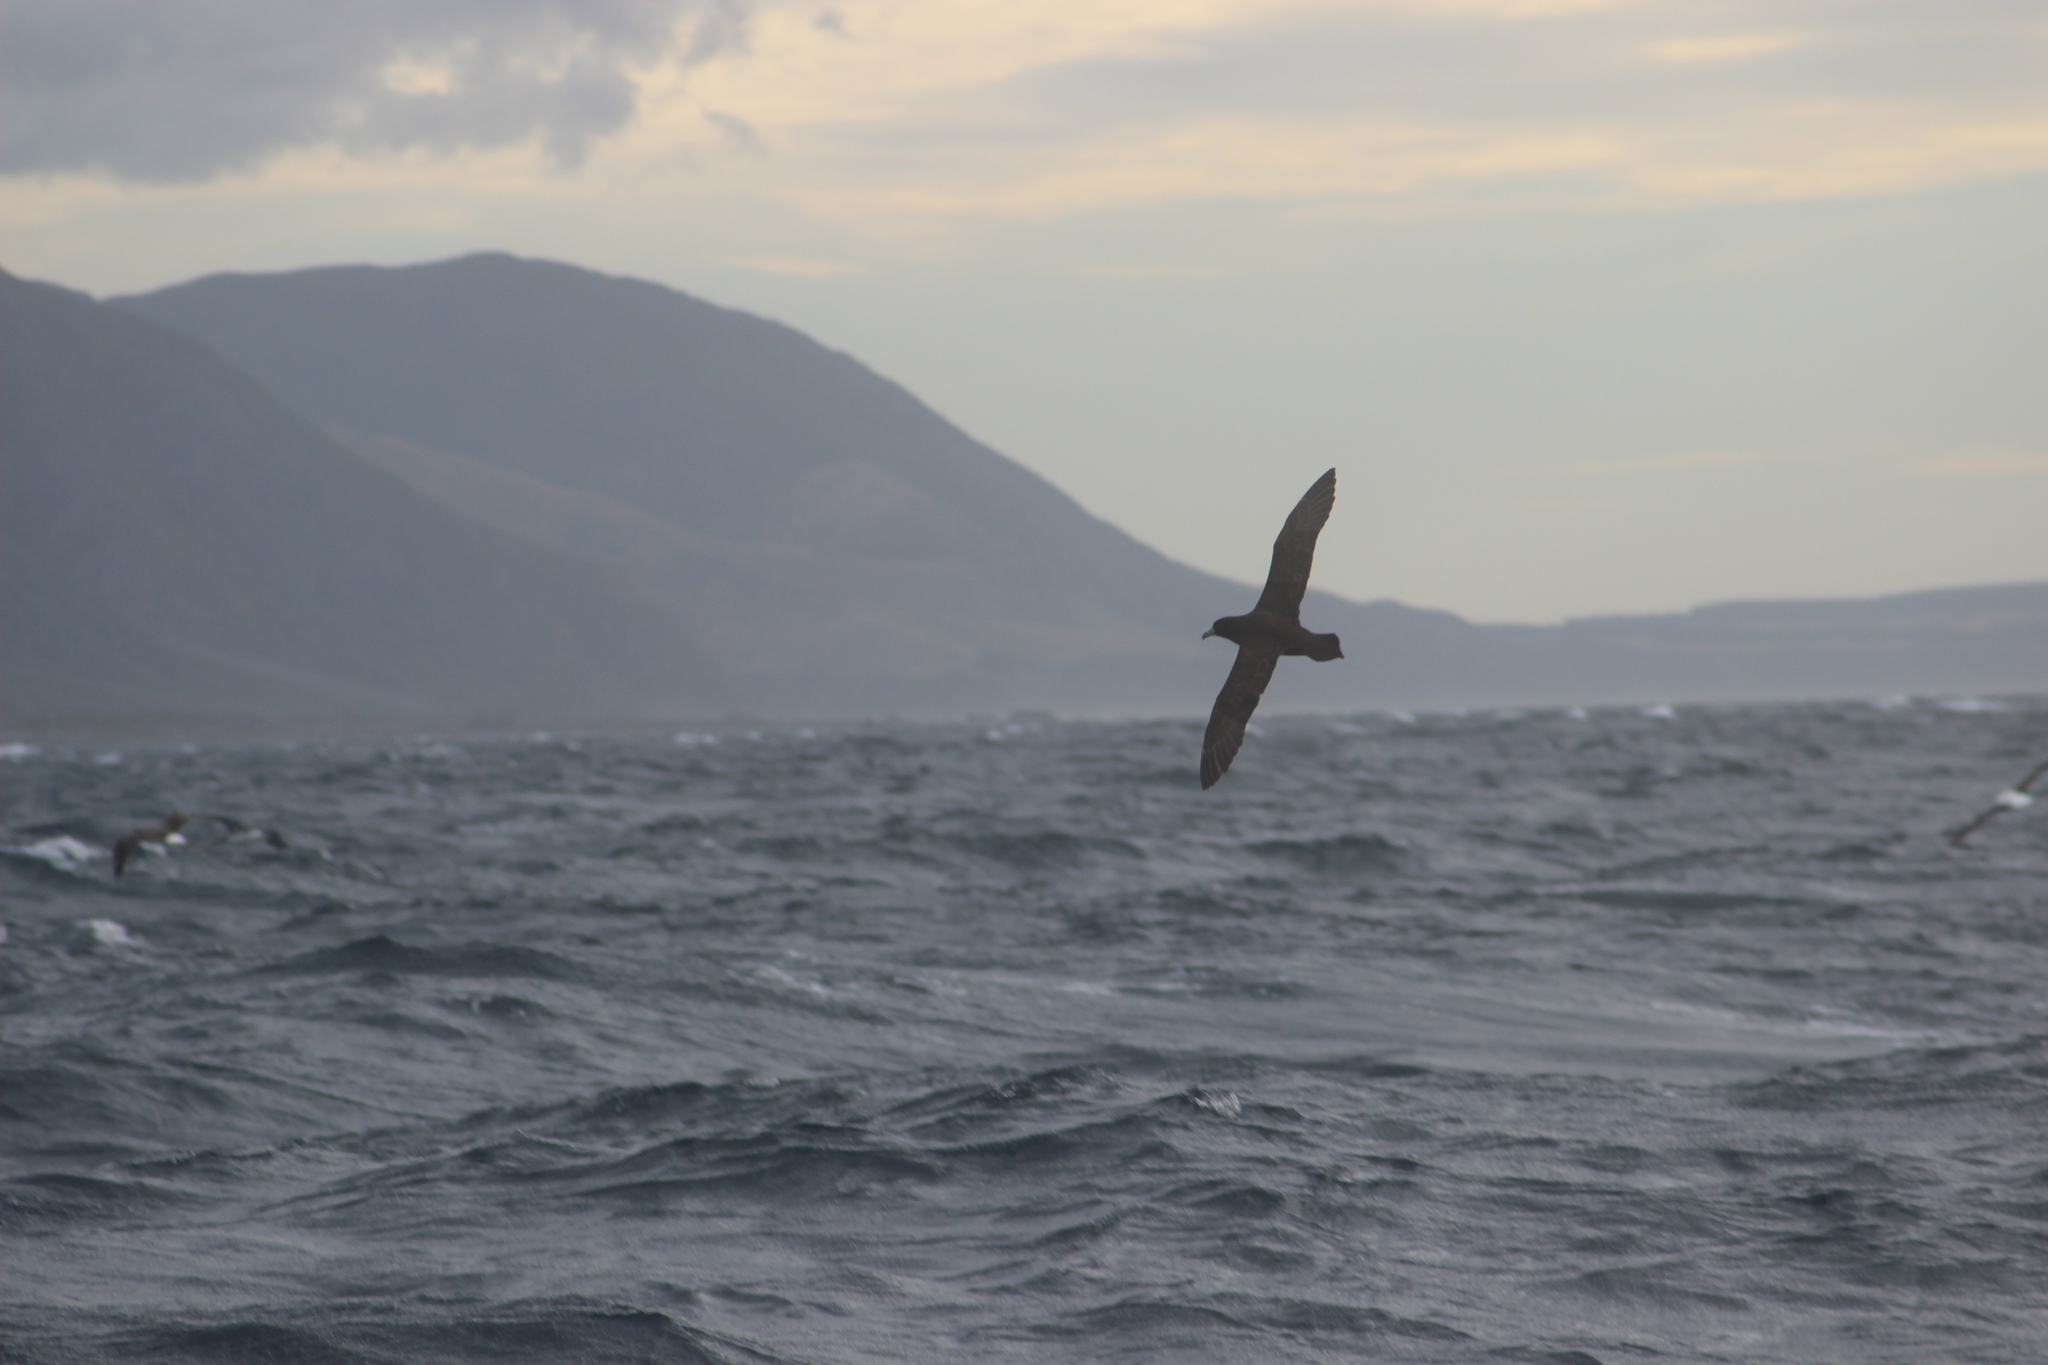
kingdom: Animalia
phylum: Chordata
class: Aves
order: Procellariiformes
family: Procellariidae
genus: Procellaria
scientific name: Procellaria aequinoctialis
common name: White-chinned petrel
